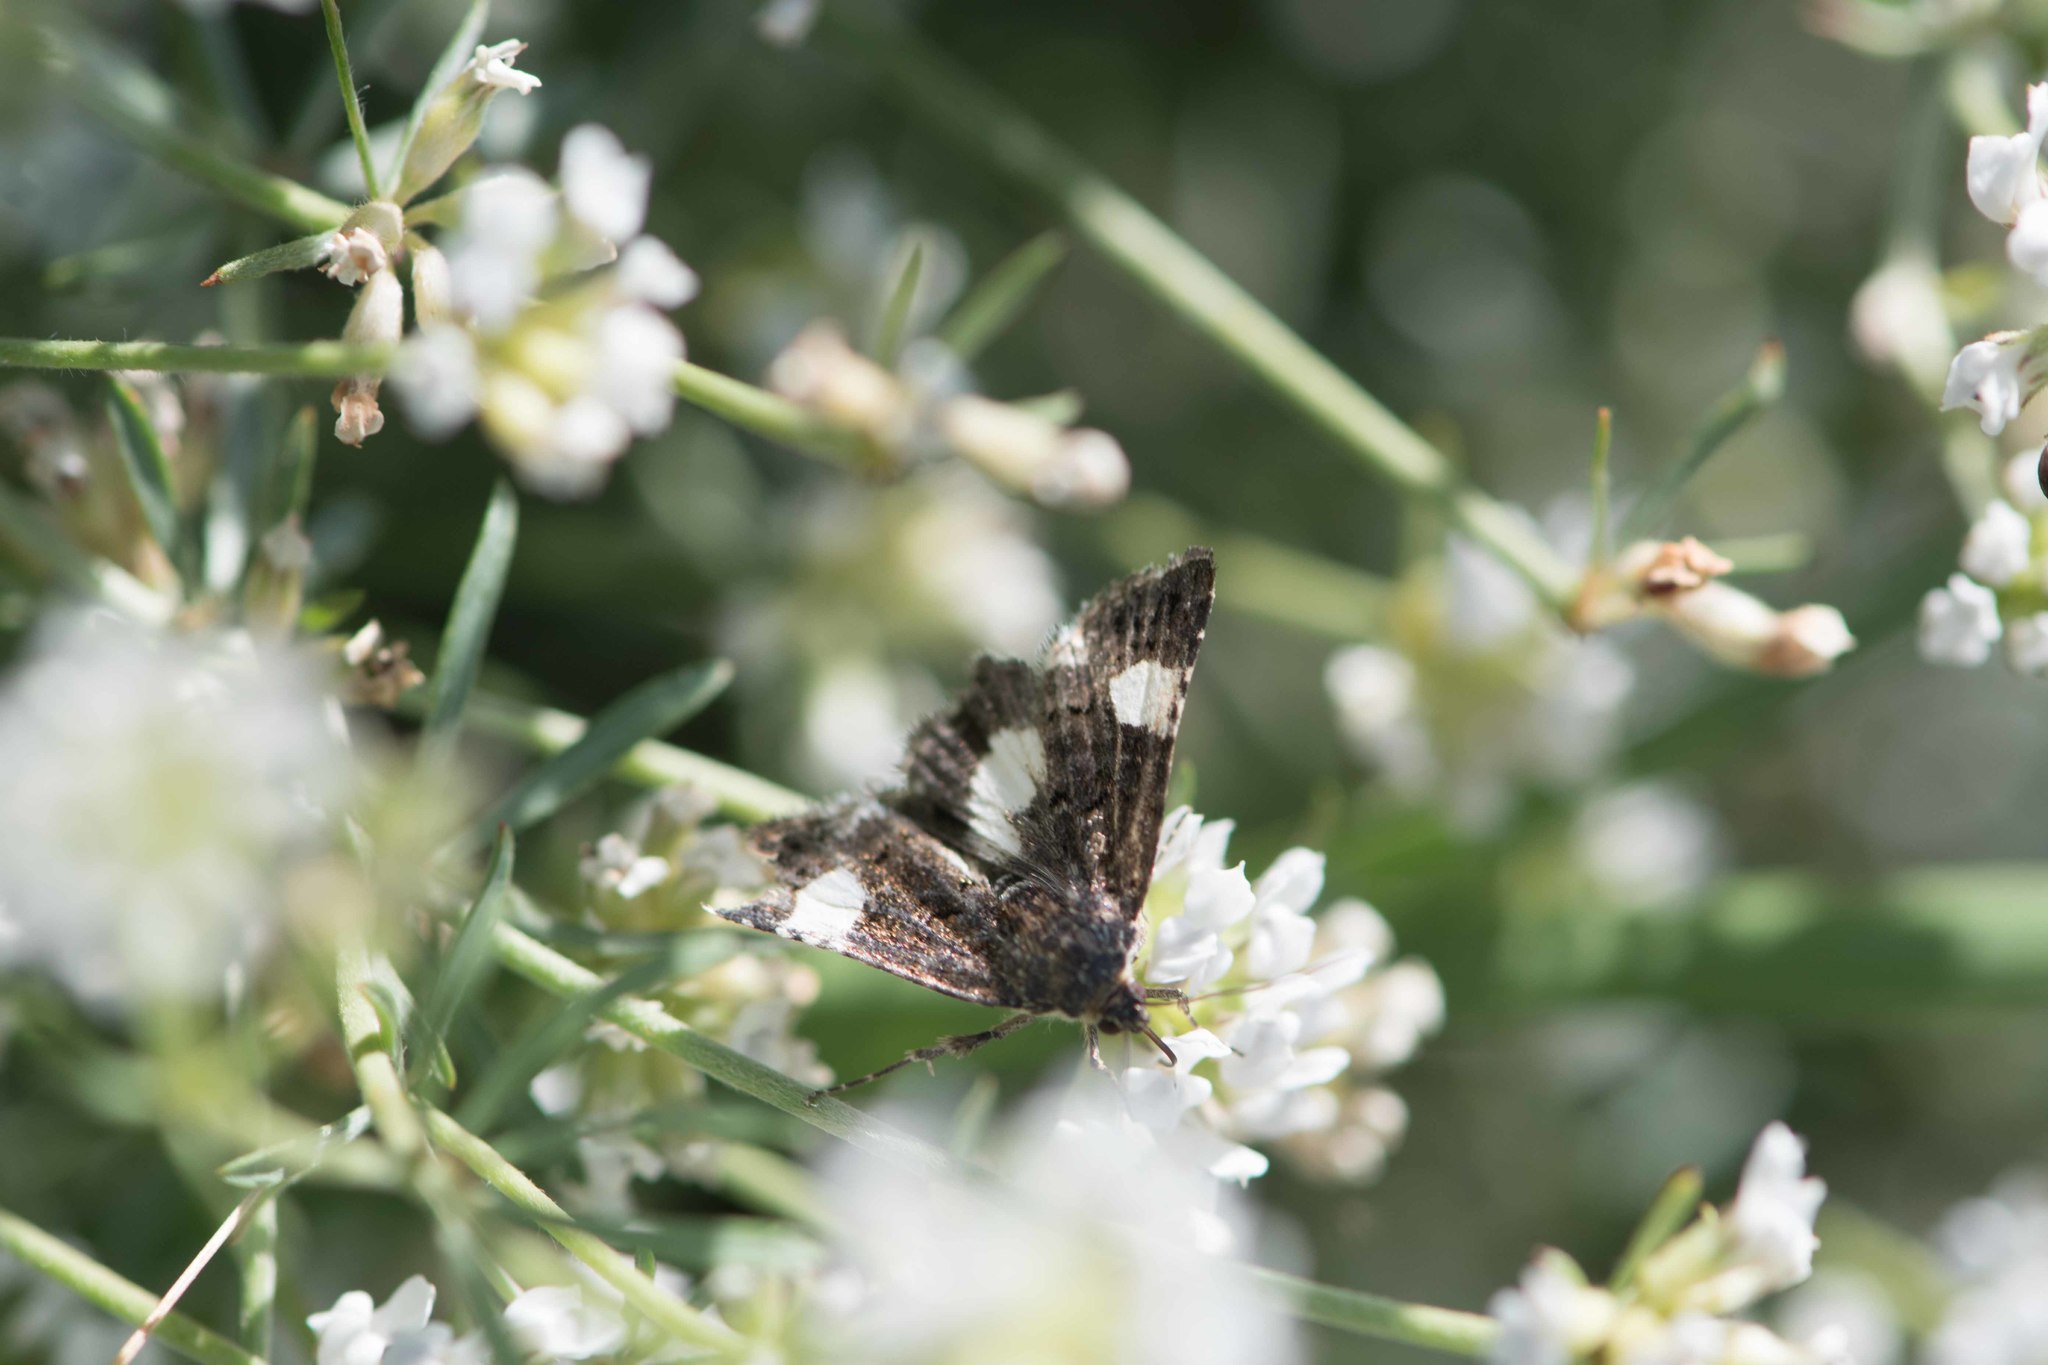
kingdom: Animalia
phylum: Arthropoda
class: Insecta
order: Lepidoptera
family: Erebidae
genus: Tyta
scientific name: Tyta luctuosa
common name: Four-spotted
